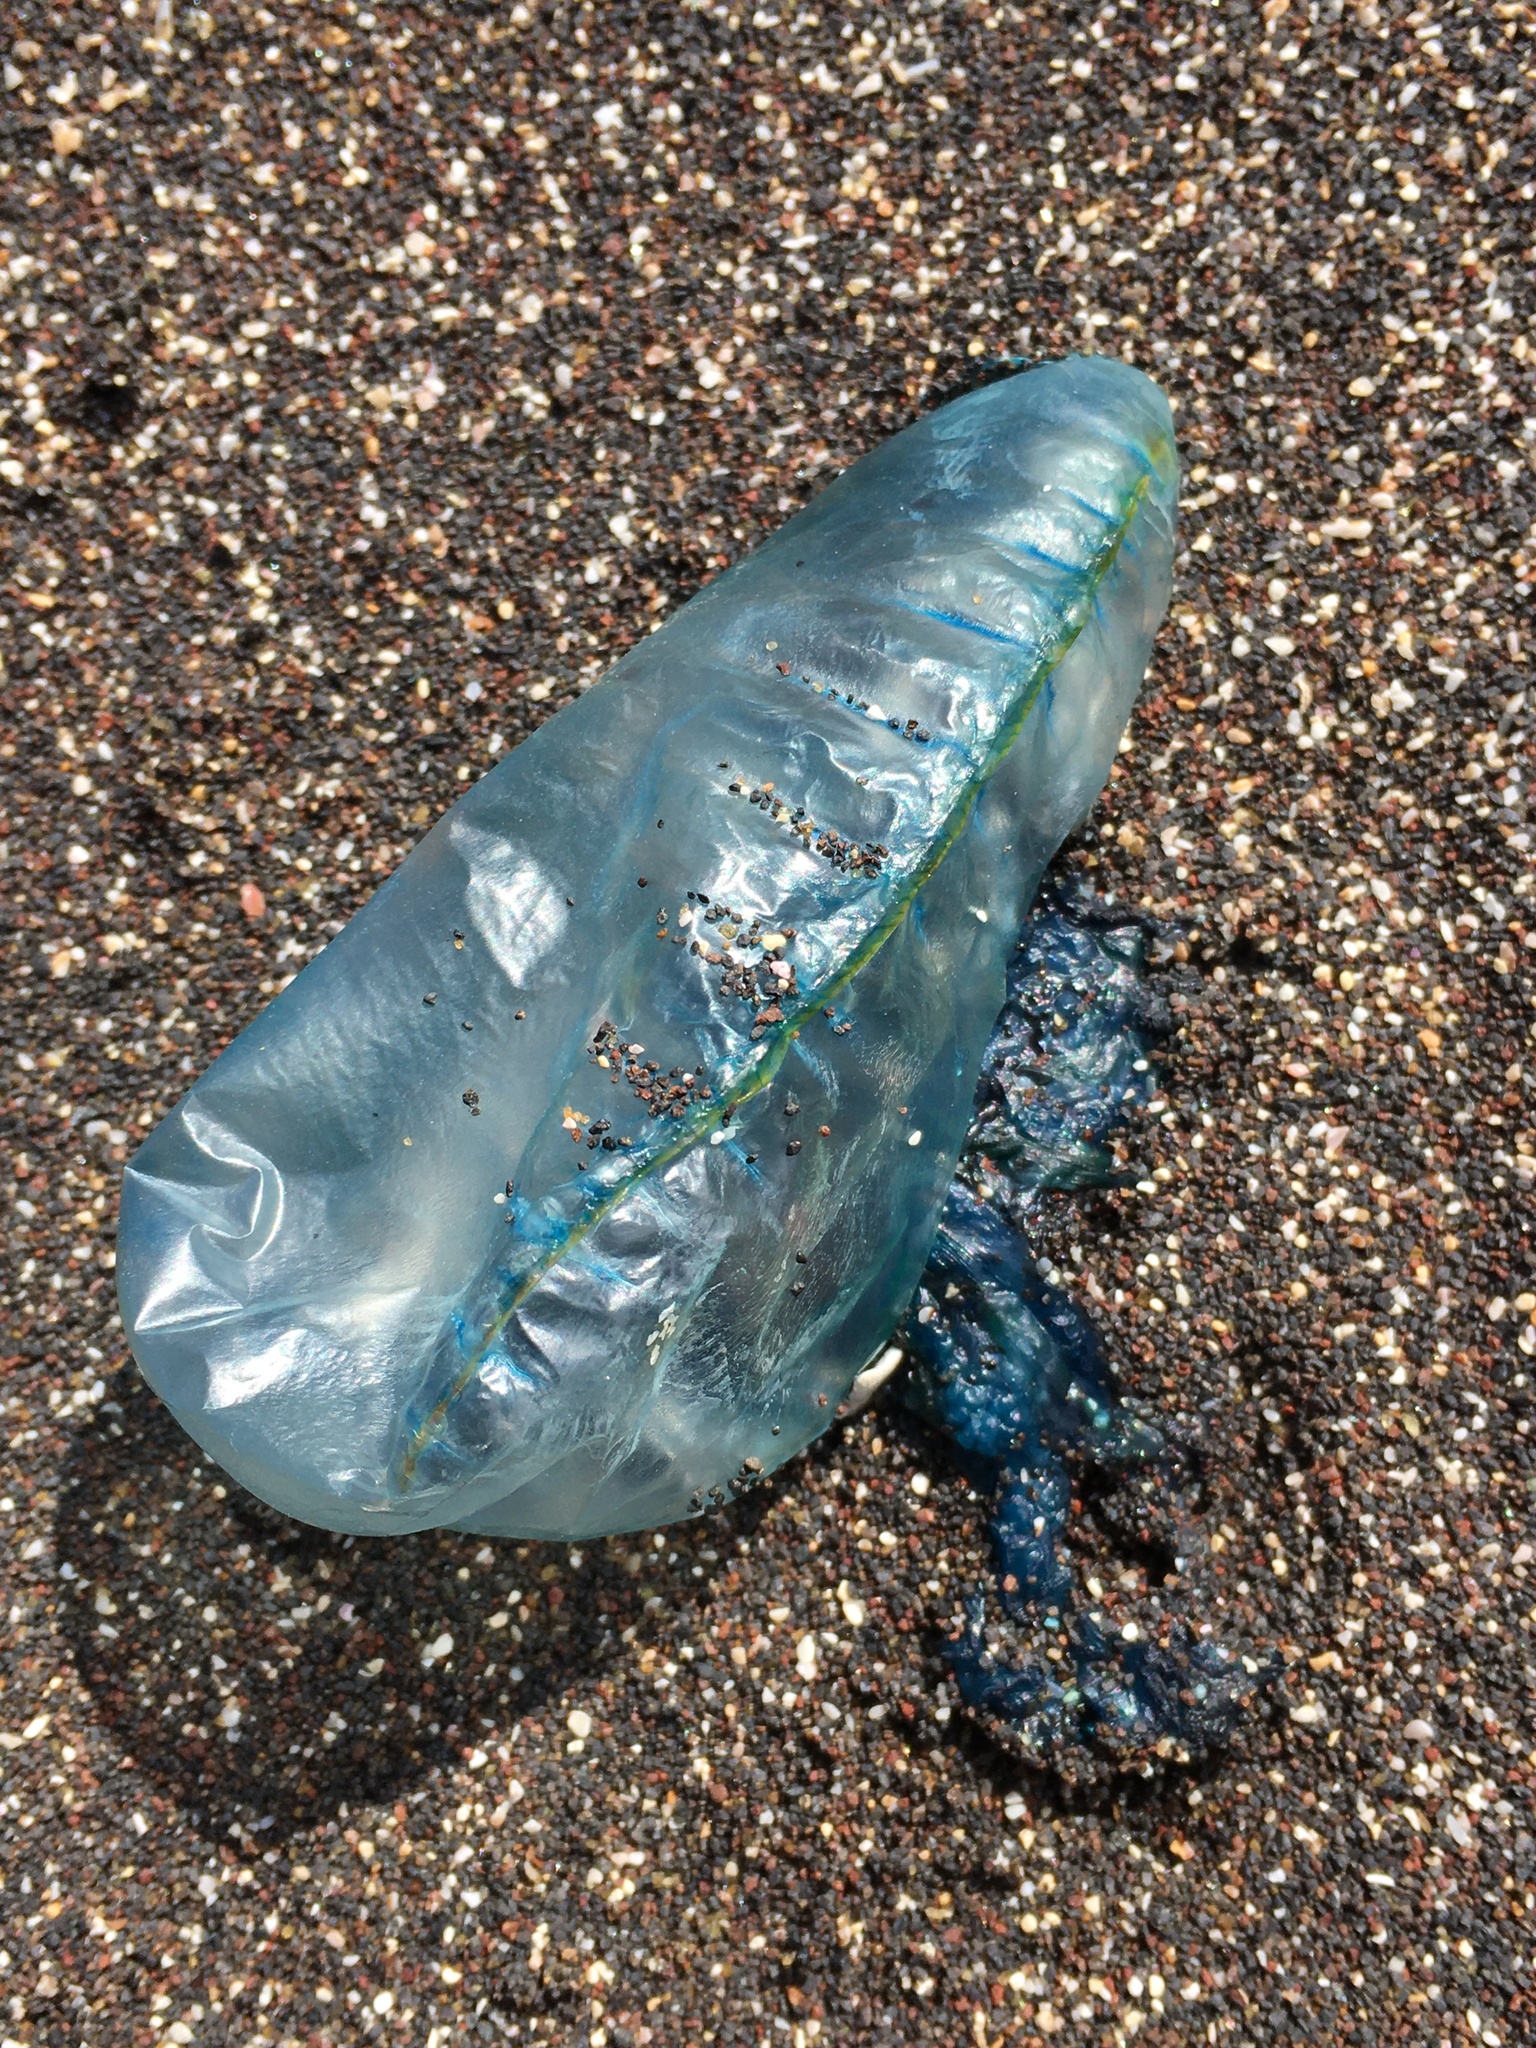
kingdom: Animalia
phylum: Cnidaria
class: Hydrozoa
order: Siphonophorae
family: Physaliidae
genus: Physalia
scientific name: Physalia physalis
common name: Portuguese man-of-war
